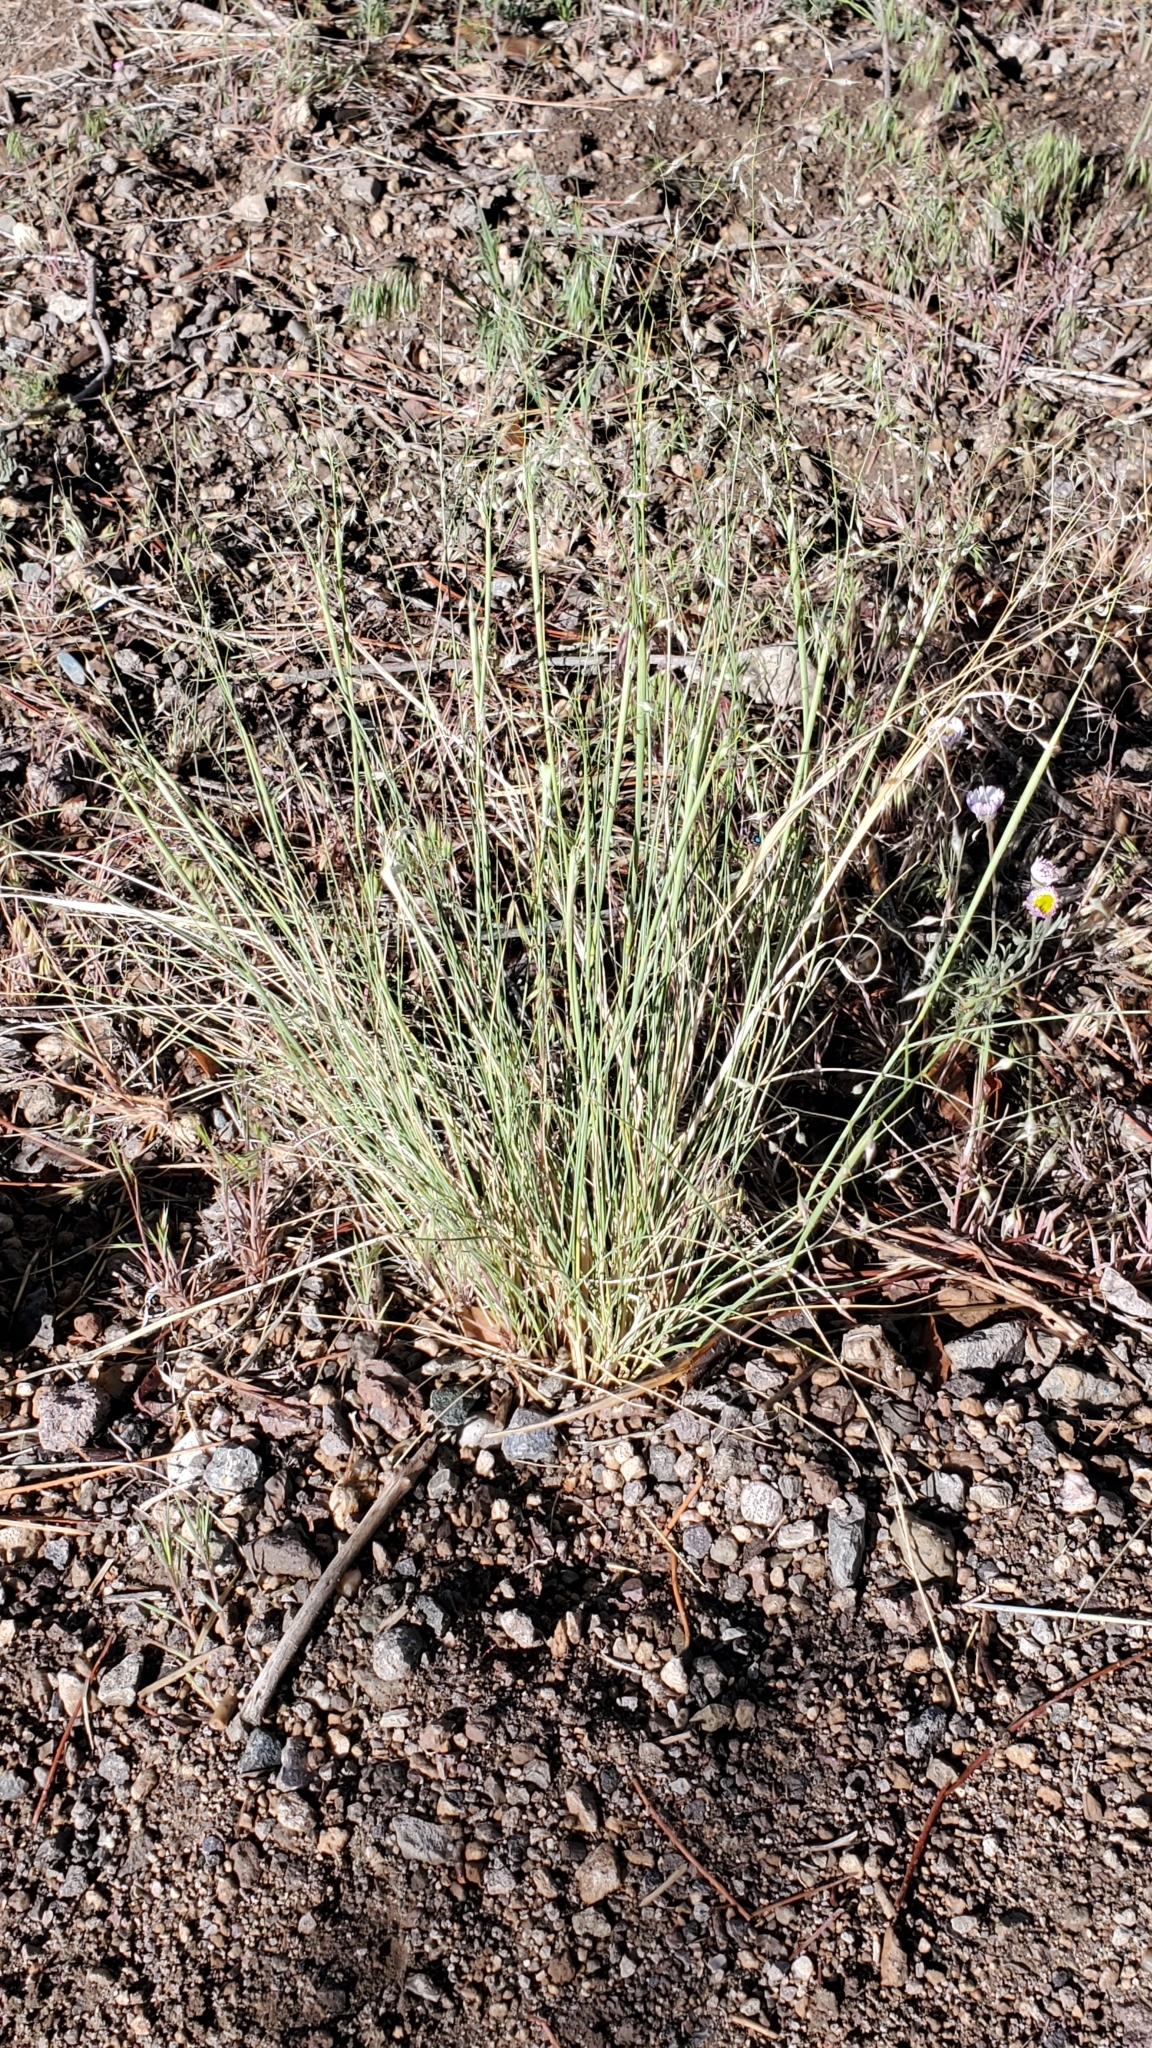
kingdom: Plantae
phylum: Tracheophyta
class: Liliopsida
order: Poales
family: Poaceae
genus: Eriocoma
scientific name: Eriocoma hymenoides
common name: Indian mountain ricegrass
